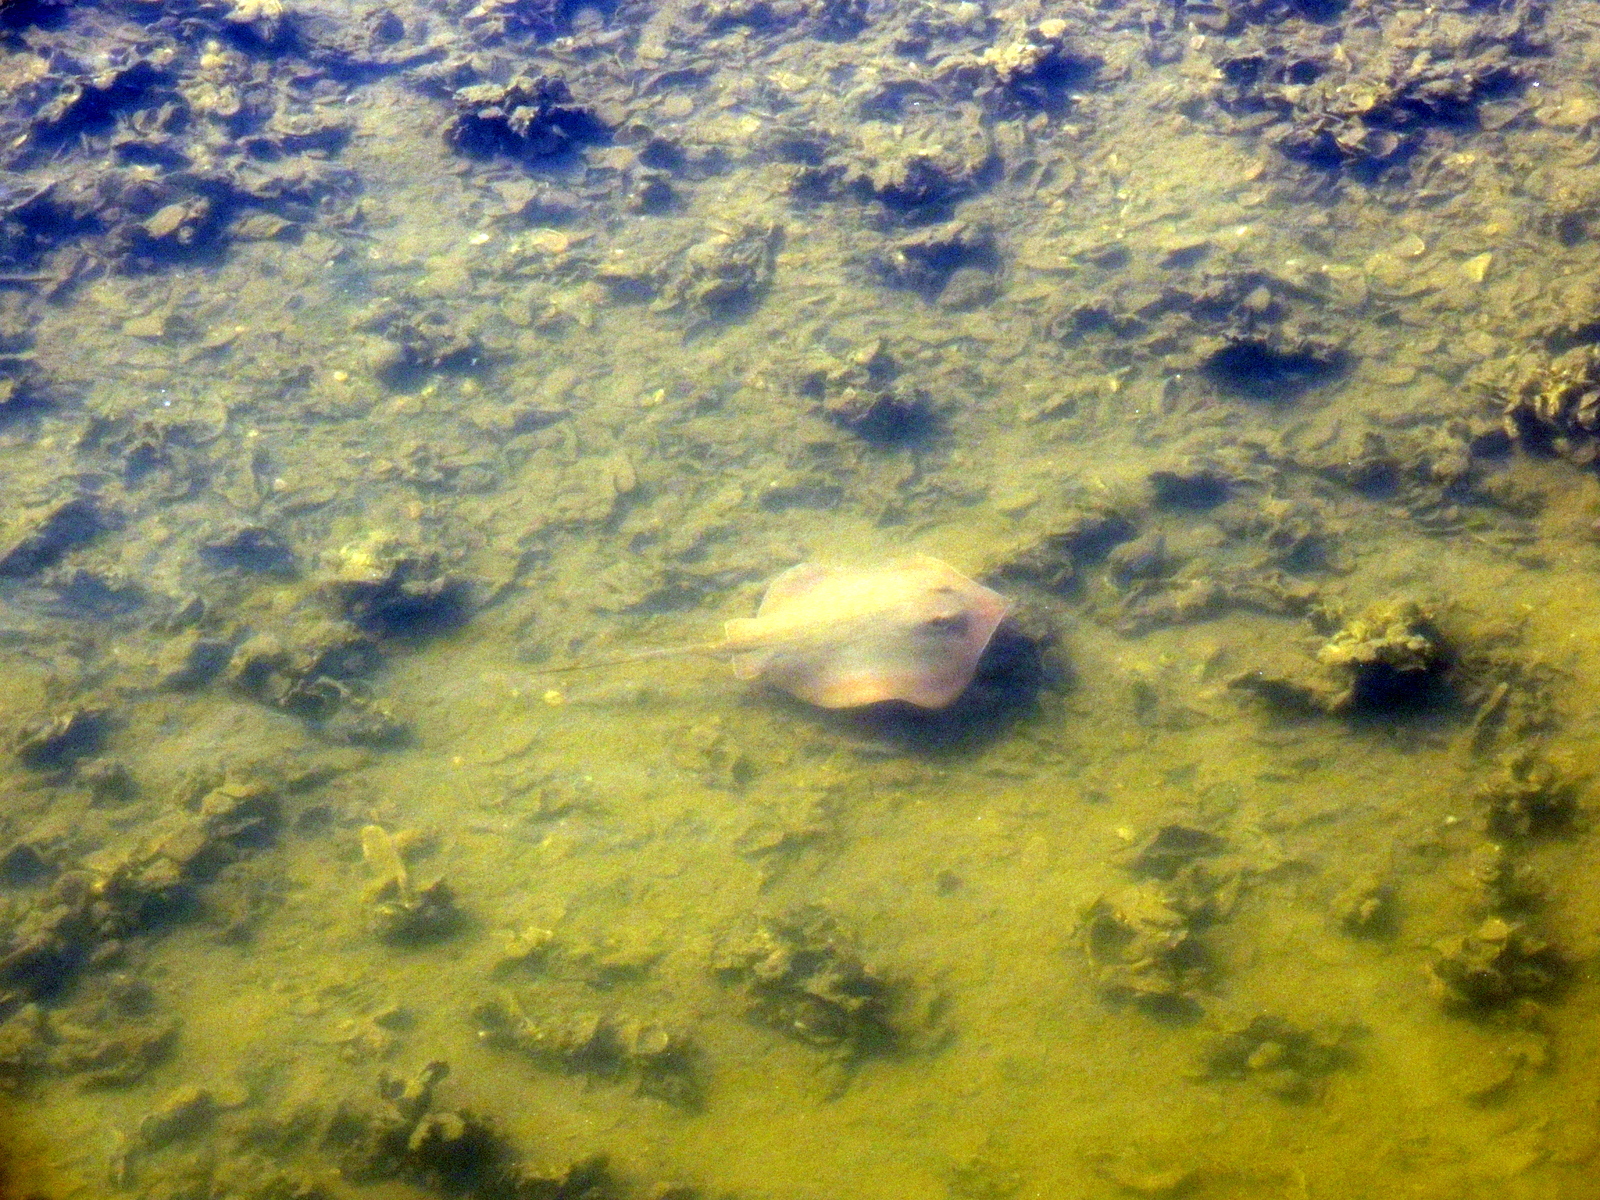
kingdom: Animalia
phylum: Chordata
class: Elasmobranchii
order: Myliobatiformes
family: Dasyatidae
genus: Hypanus
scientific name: Hypanus sabinus
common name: Atlantic stingray
